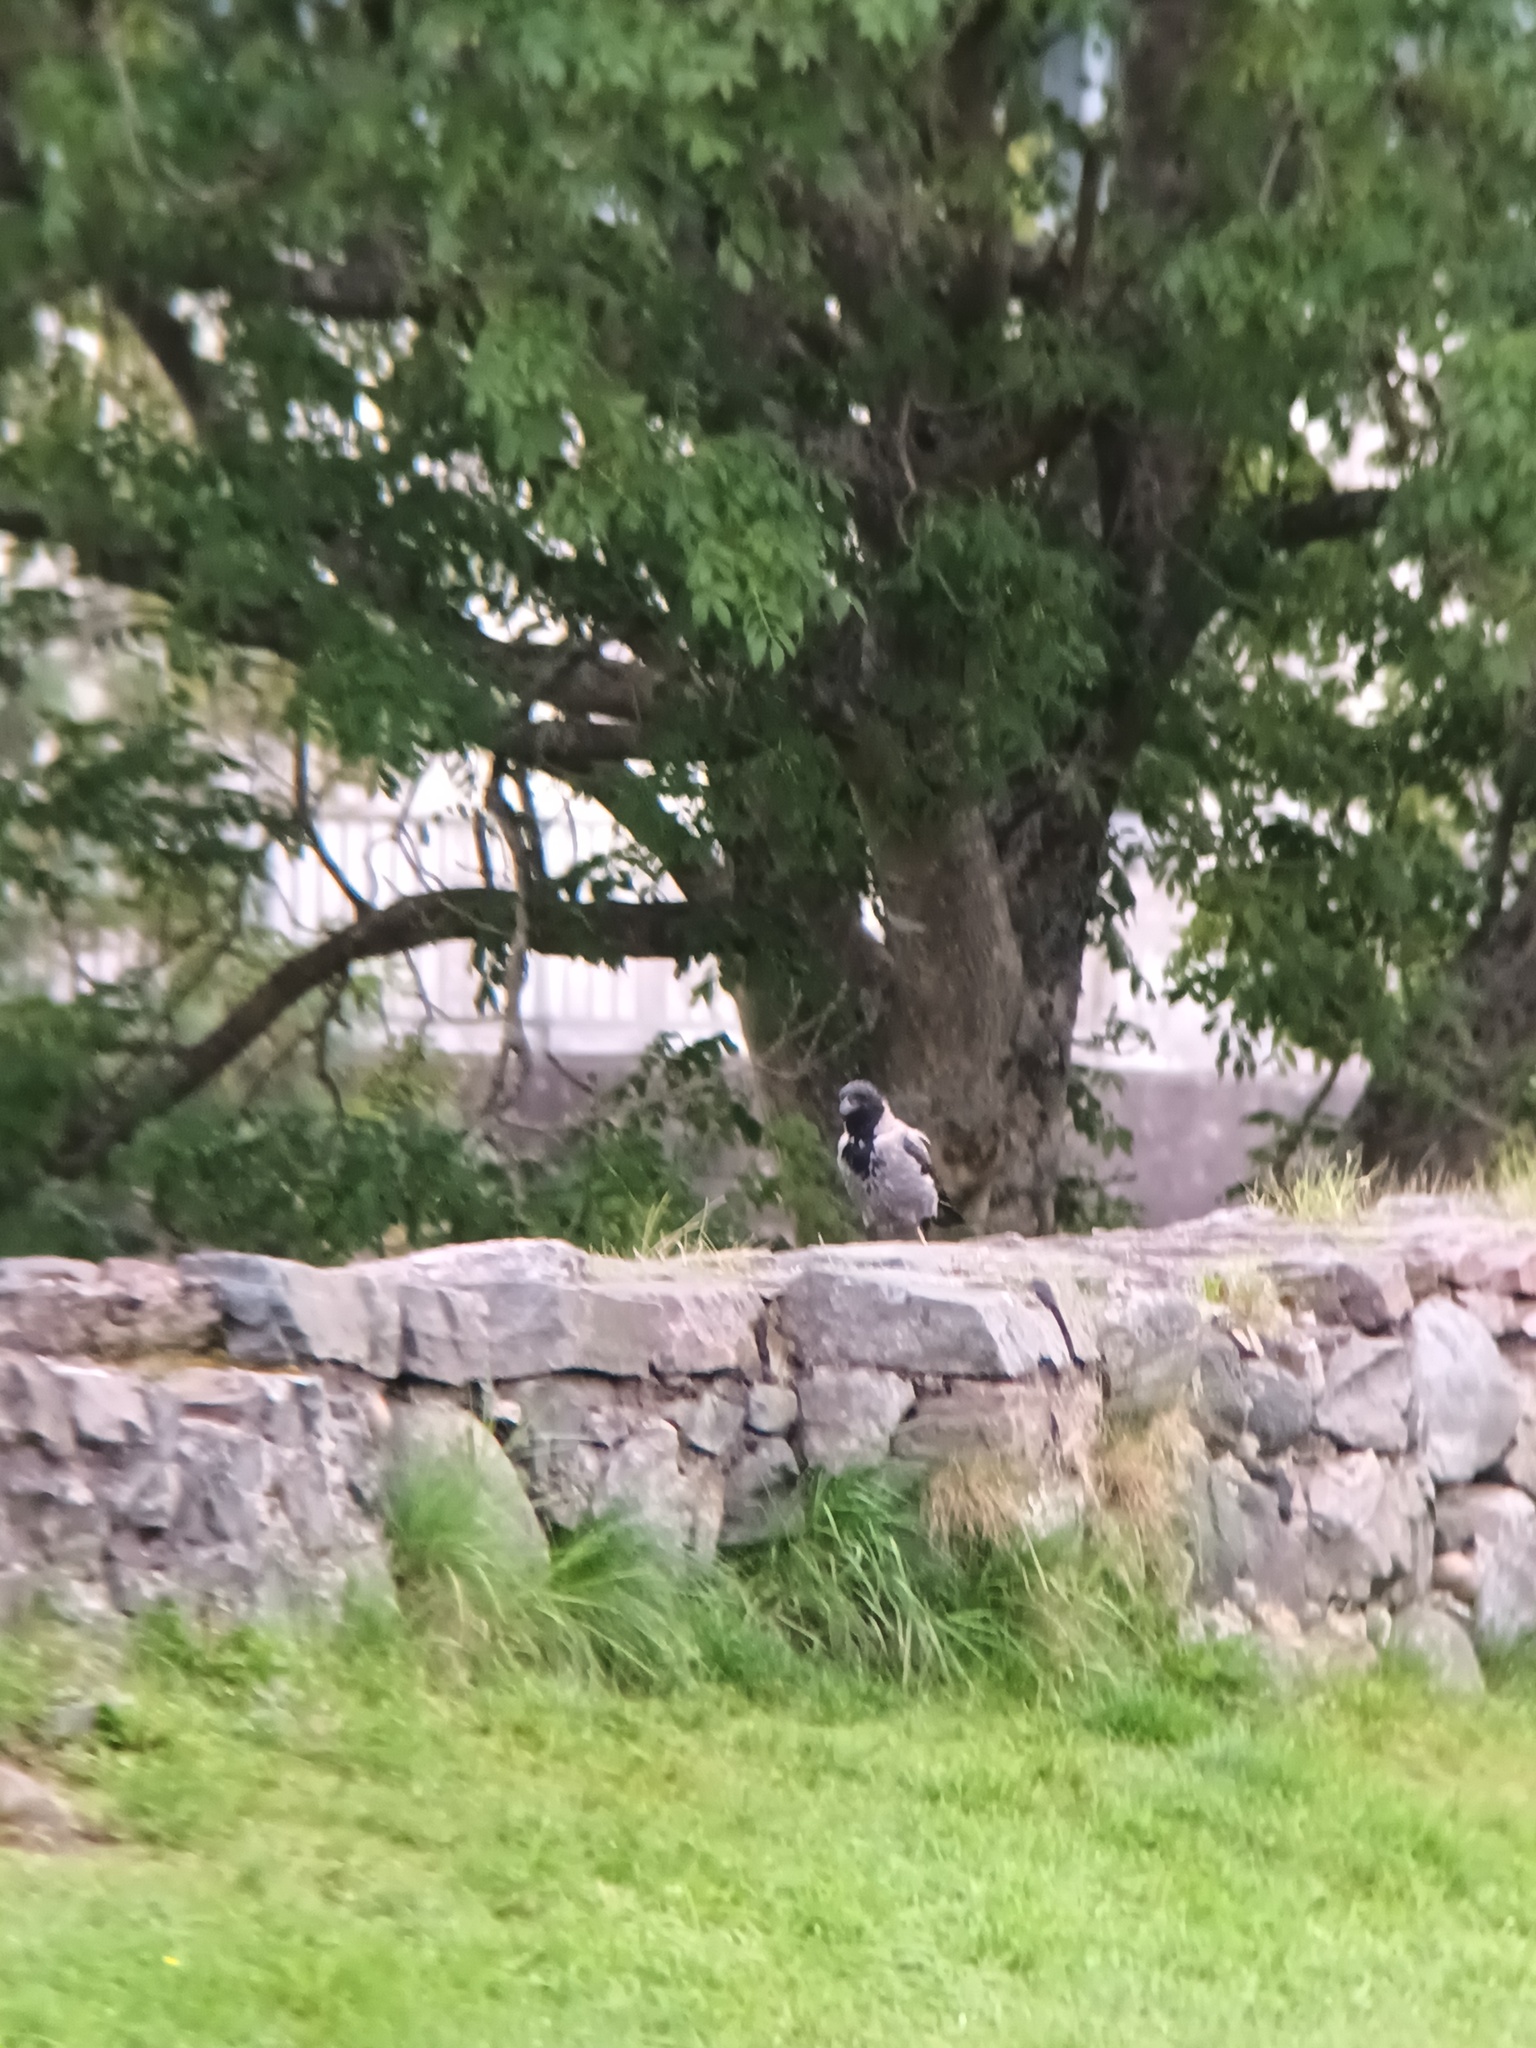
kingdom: Animalia
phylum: Chordata
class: Aves
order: Passeriformes
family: Corvidae
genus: Corvus
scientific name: Corvus cornix
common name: Hooded crow
